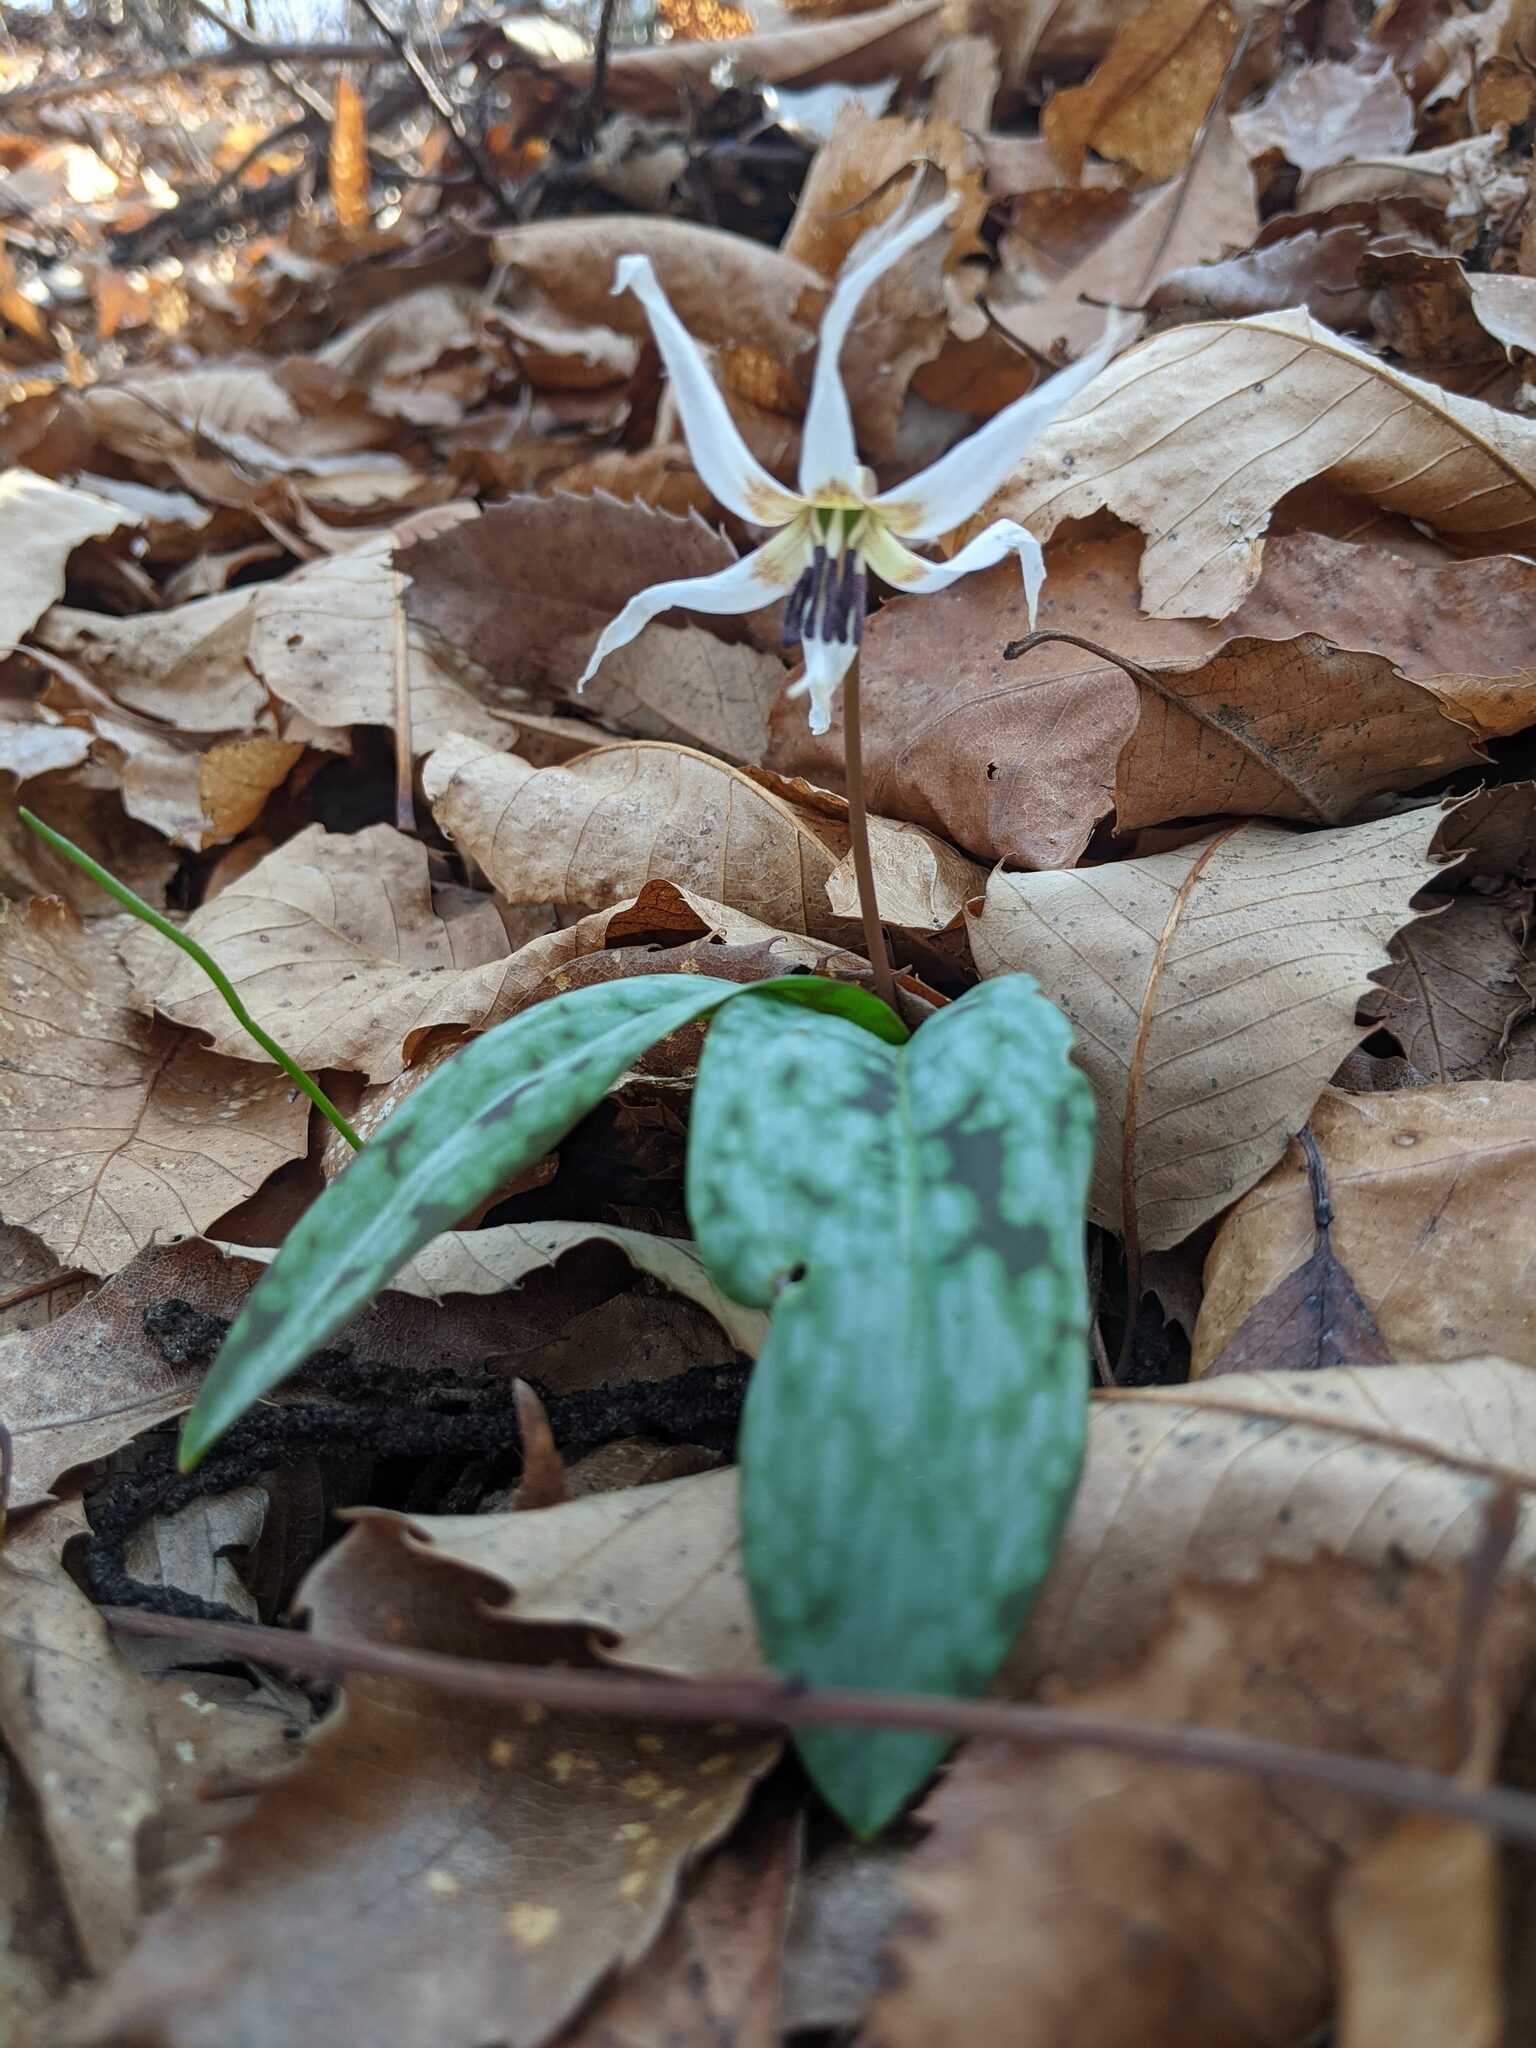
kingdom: Plantae
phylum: Tracheophyta
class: Liliopsida
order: Liliales
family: Liliaceae
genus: Erythronium
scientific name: Erythronium dens-canis
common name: Dog's-tooth-violet
